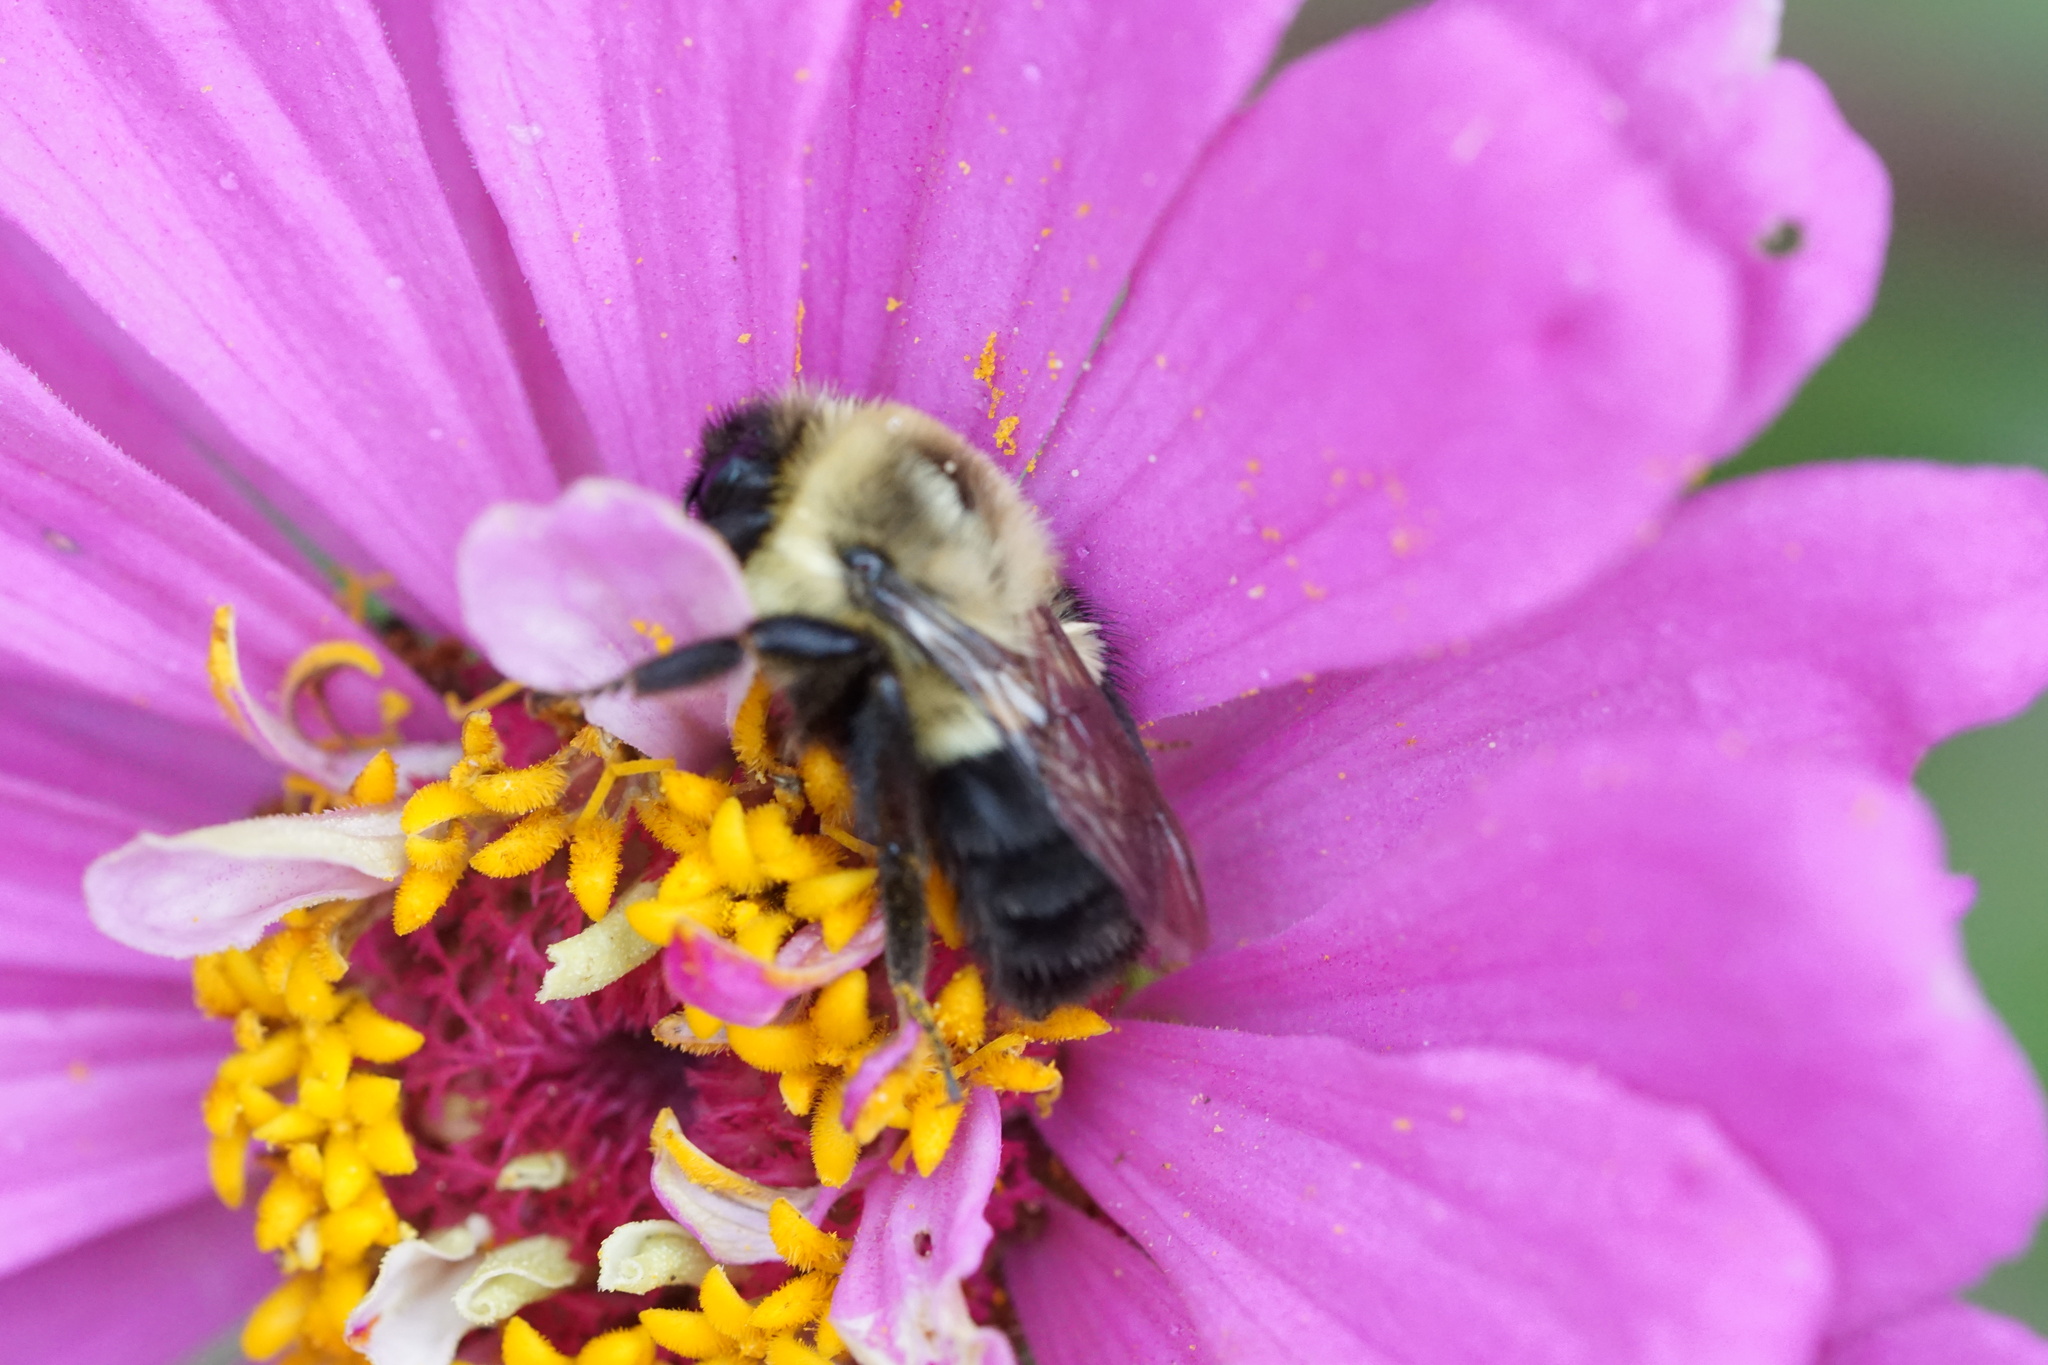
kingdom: Animalia
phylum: Arthropoda
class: Insecta
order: Hymenoptera
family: Apidae
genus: Bombus
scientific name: Bombus impatiens
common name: Common eastern bumble bee
